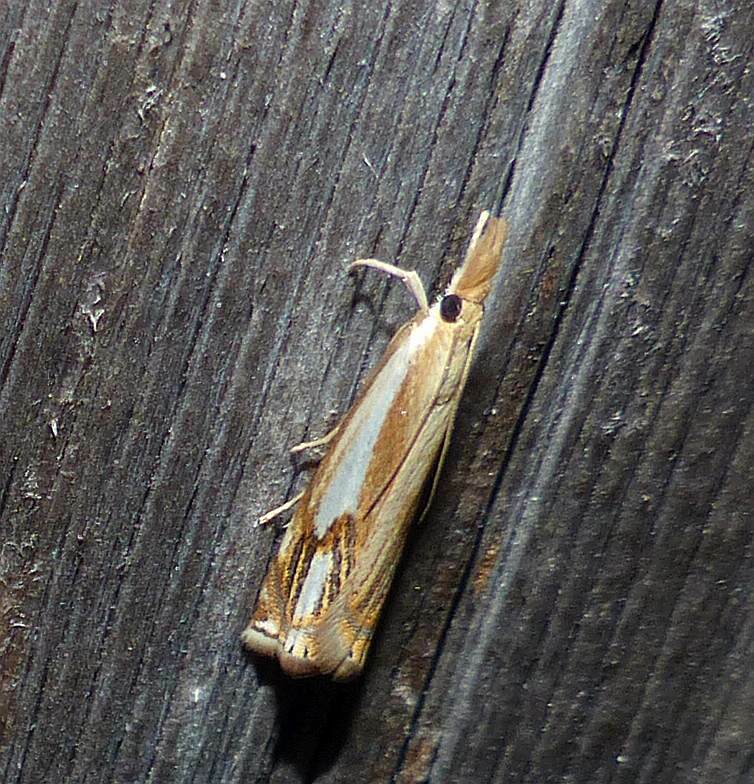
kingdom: Animalia
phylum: Arthropoda
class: Insecta
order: Lepidoptera
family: Crambidae
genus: Crambus
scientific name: Crambus agitatellus
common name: Double-banded grass-veneer
